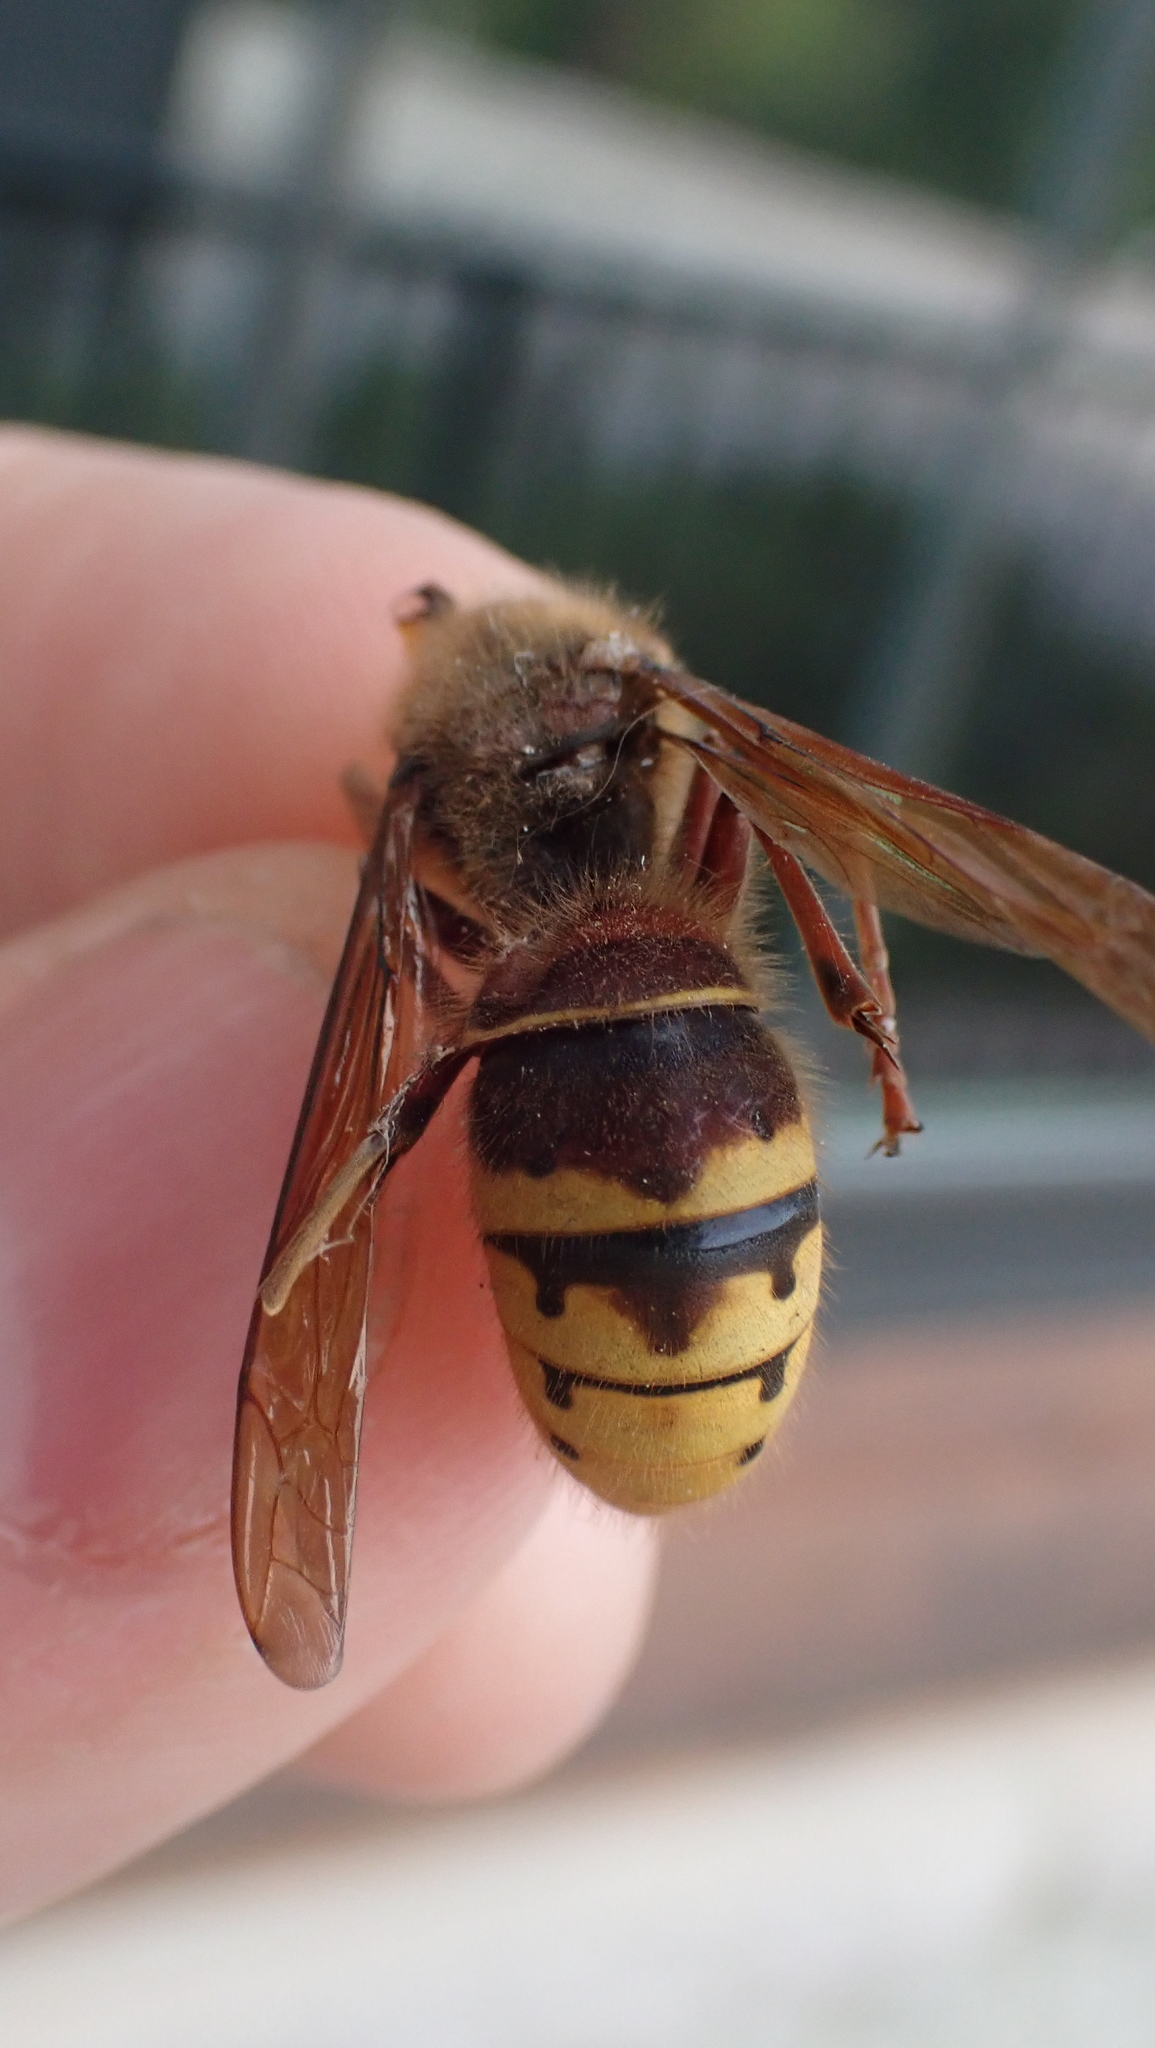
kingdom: Animalia
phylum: Arthropoda
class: Insecta
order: Hymenoptera
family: Vespidae
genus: Vespa
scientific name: Vespa crabro
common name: Hornet
